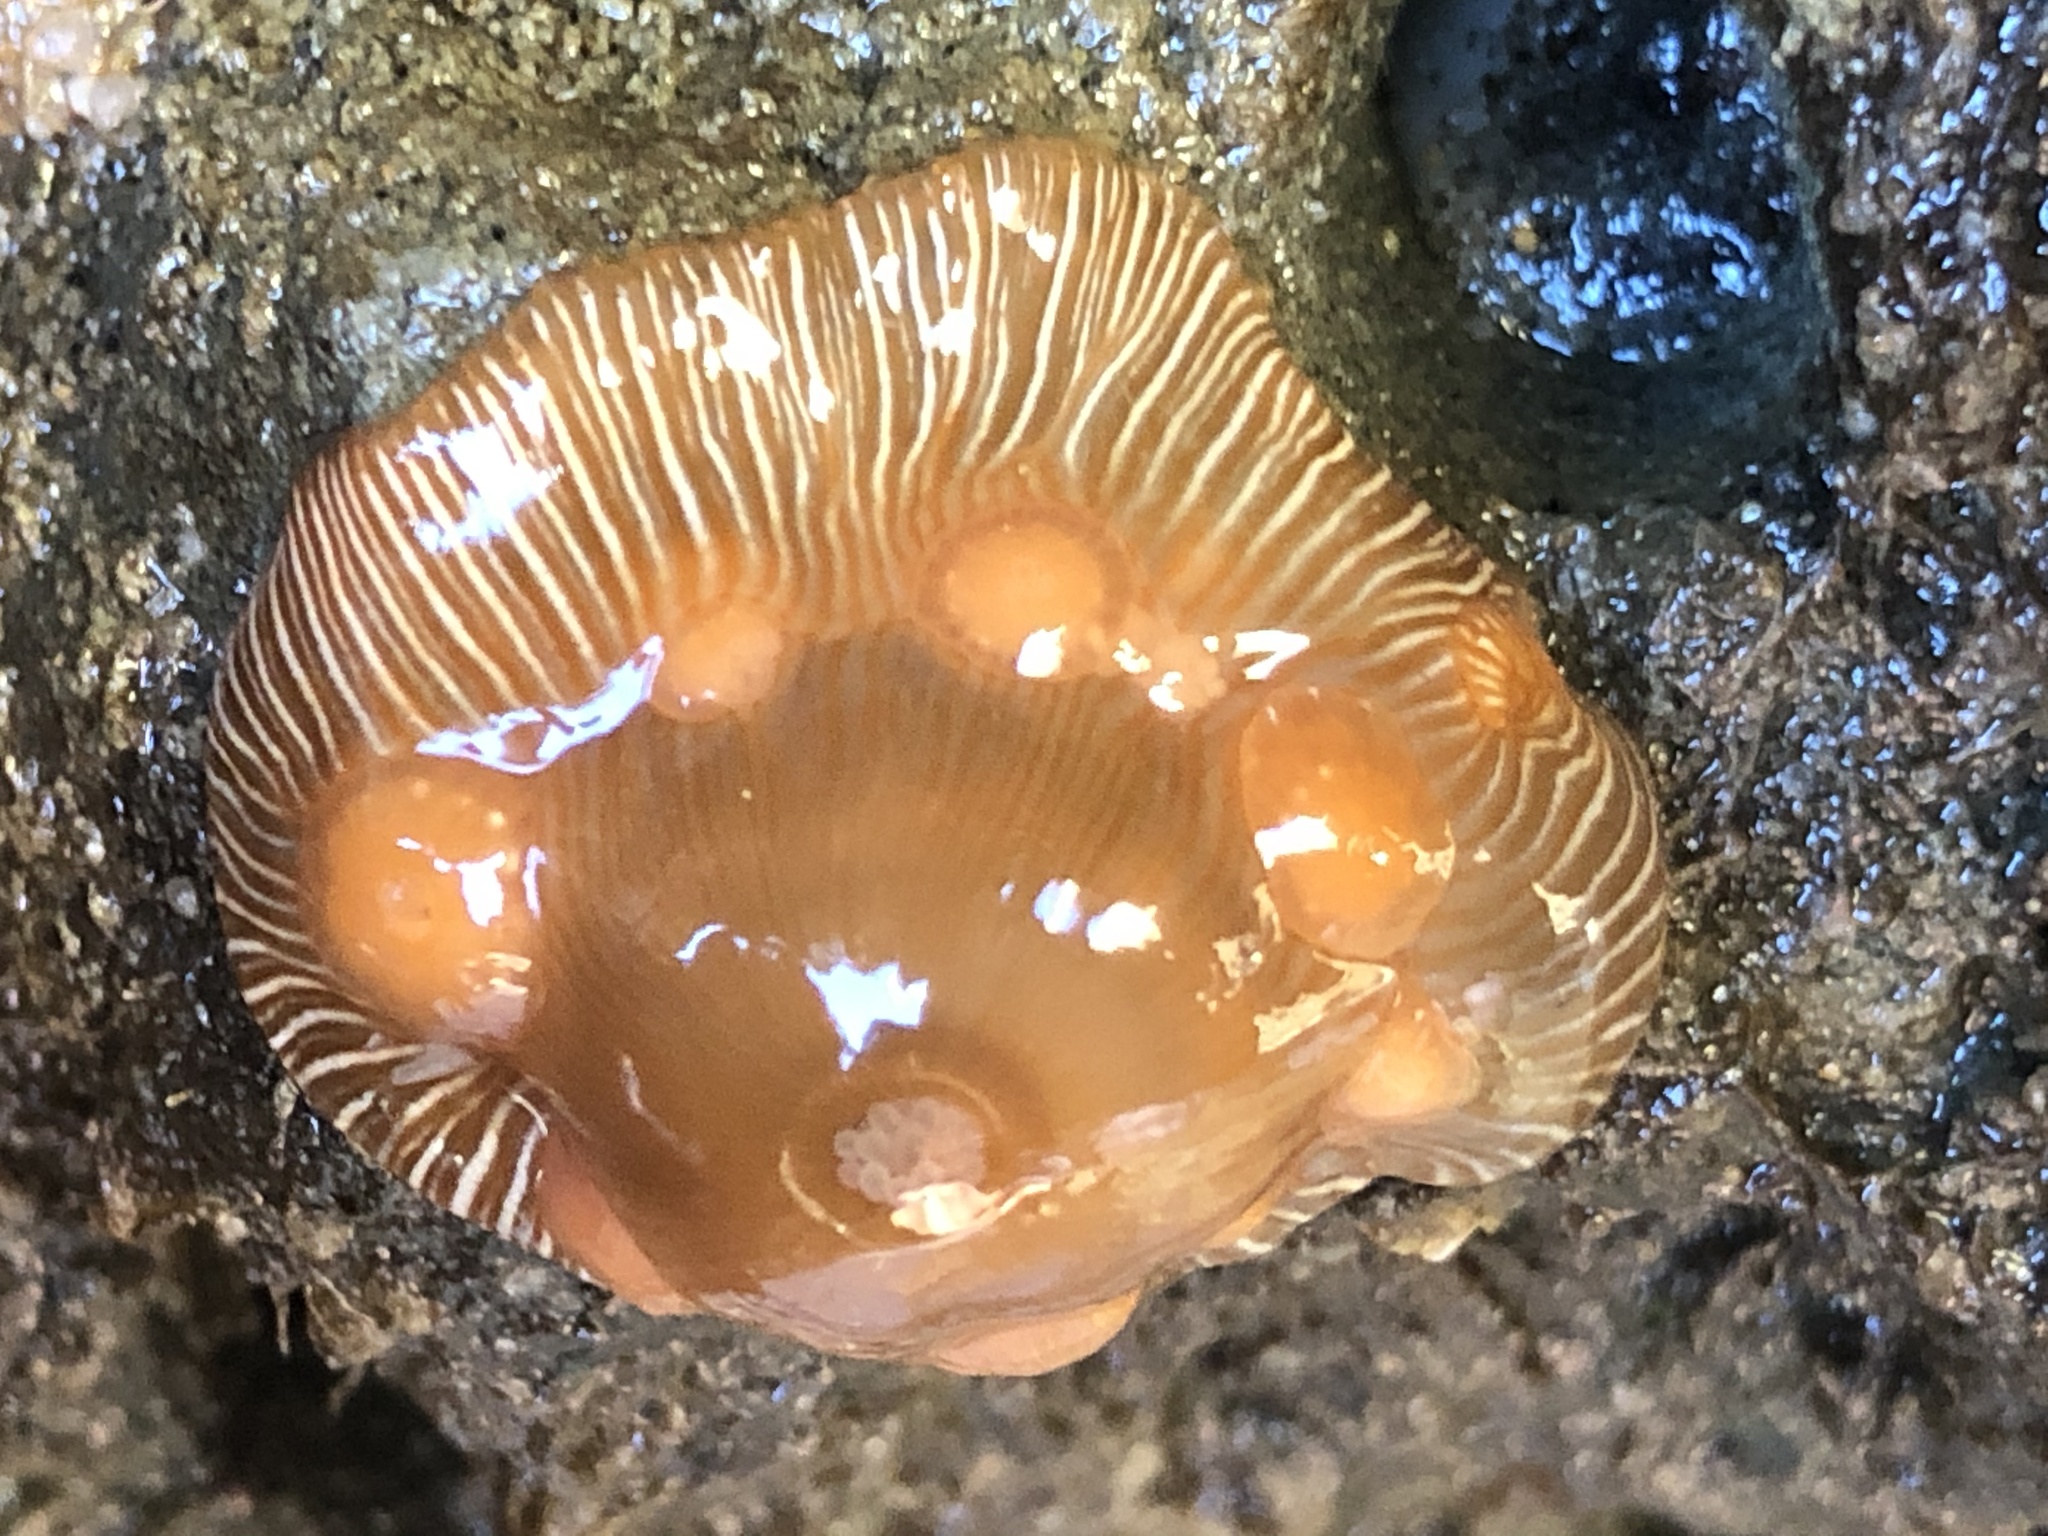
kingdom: Animalia
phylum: Cnidaria
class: Anthozoa
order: Actiniaria
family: Actiniidae
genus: Epiactis
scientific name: Epiactis prolifera
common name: Brooding anemone
